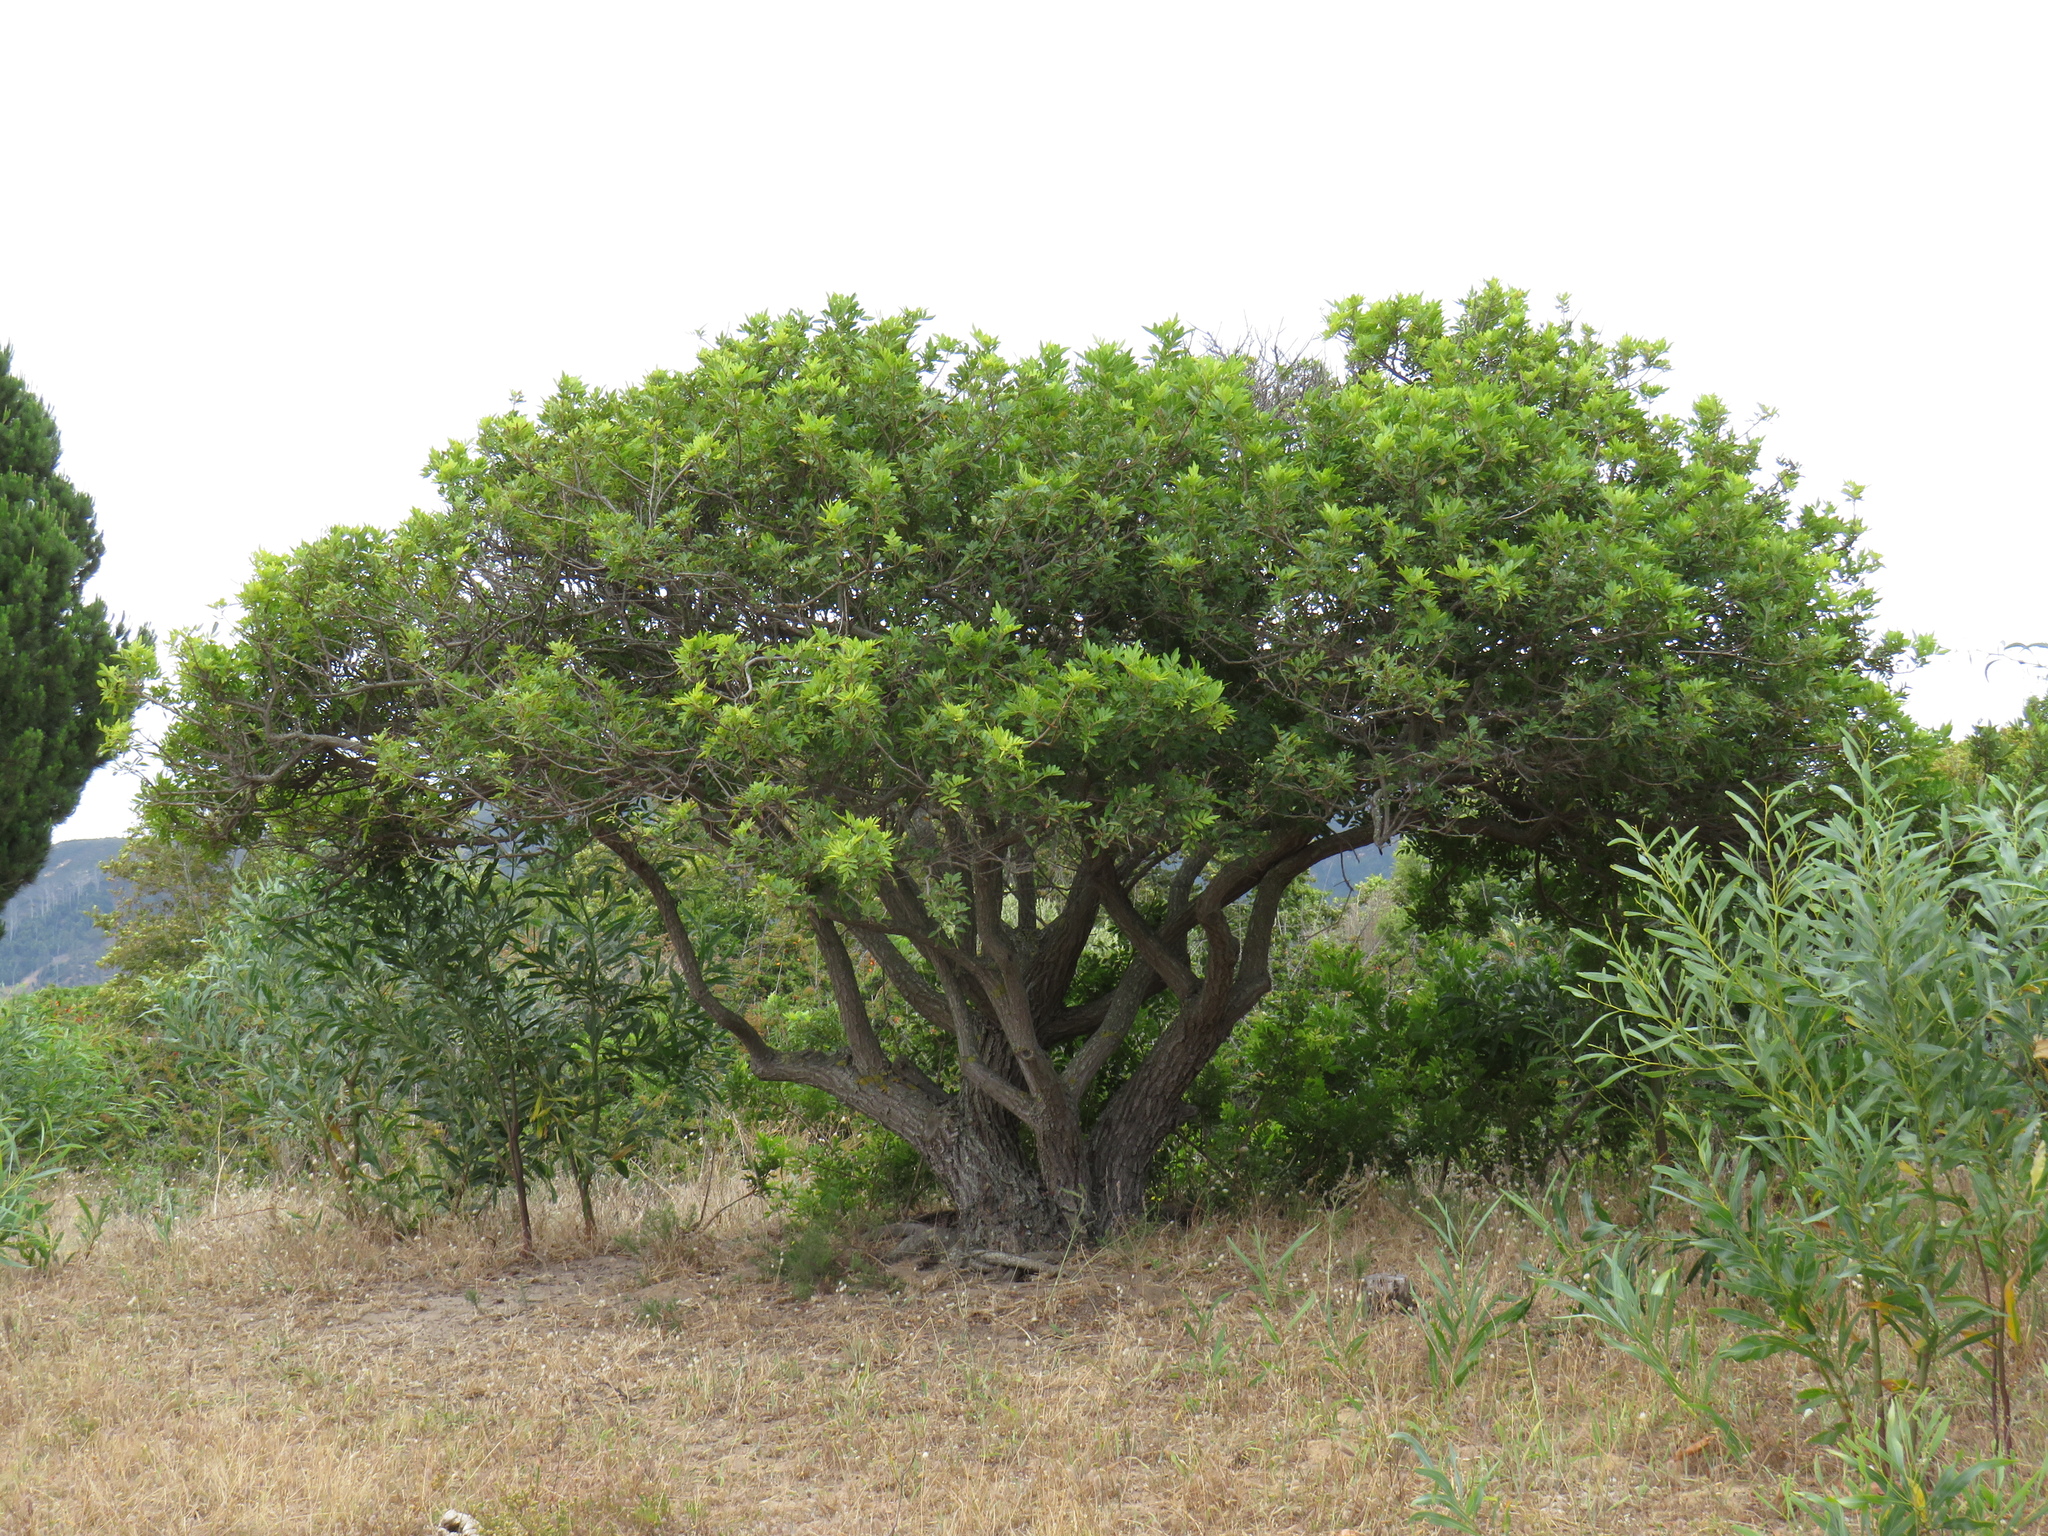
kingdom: Plantae
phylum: Tracheophyta
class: Magnoliopsida
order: Sapindales
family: Anacardiaceae
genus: Schinus
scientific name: Schinus terebinthifolia
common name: Brazilian peppertree
